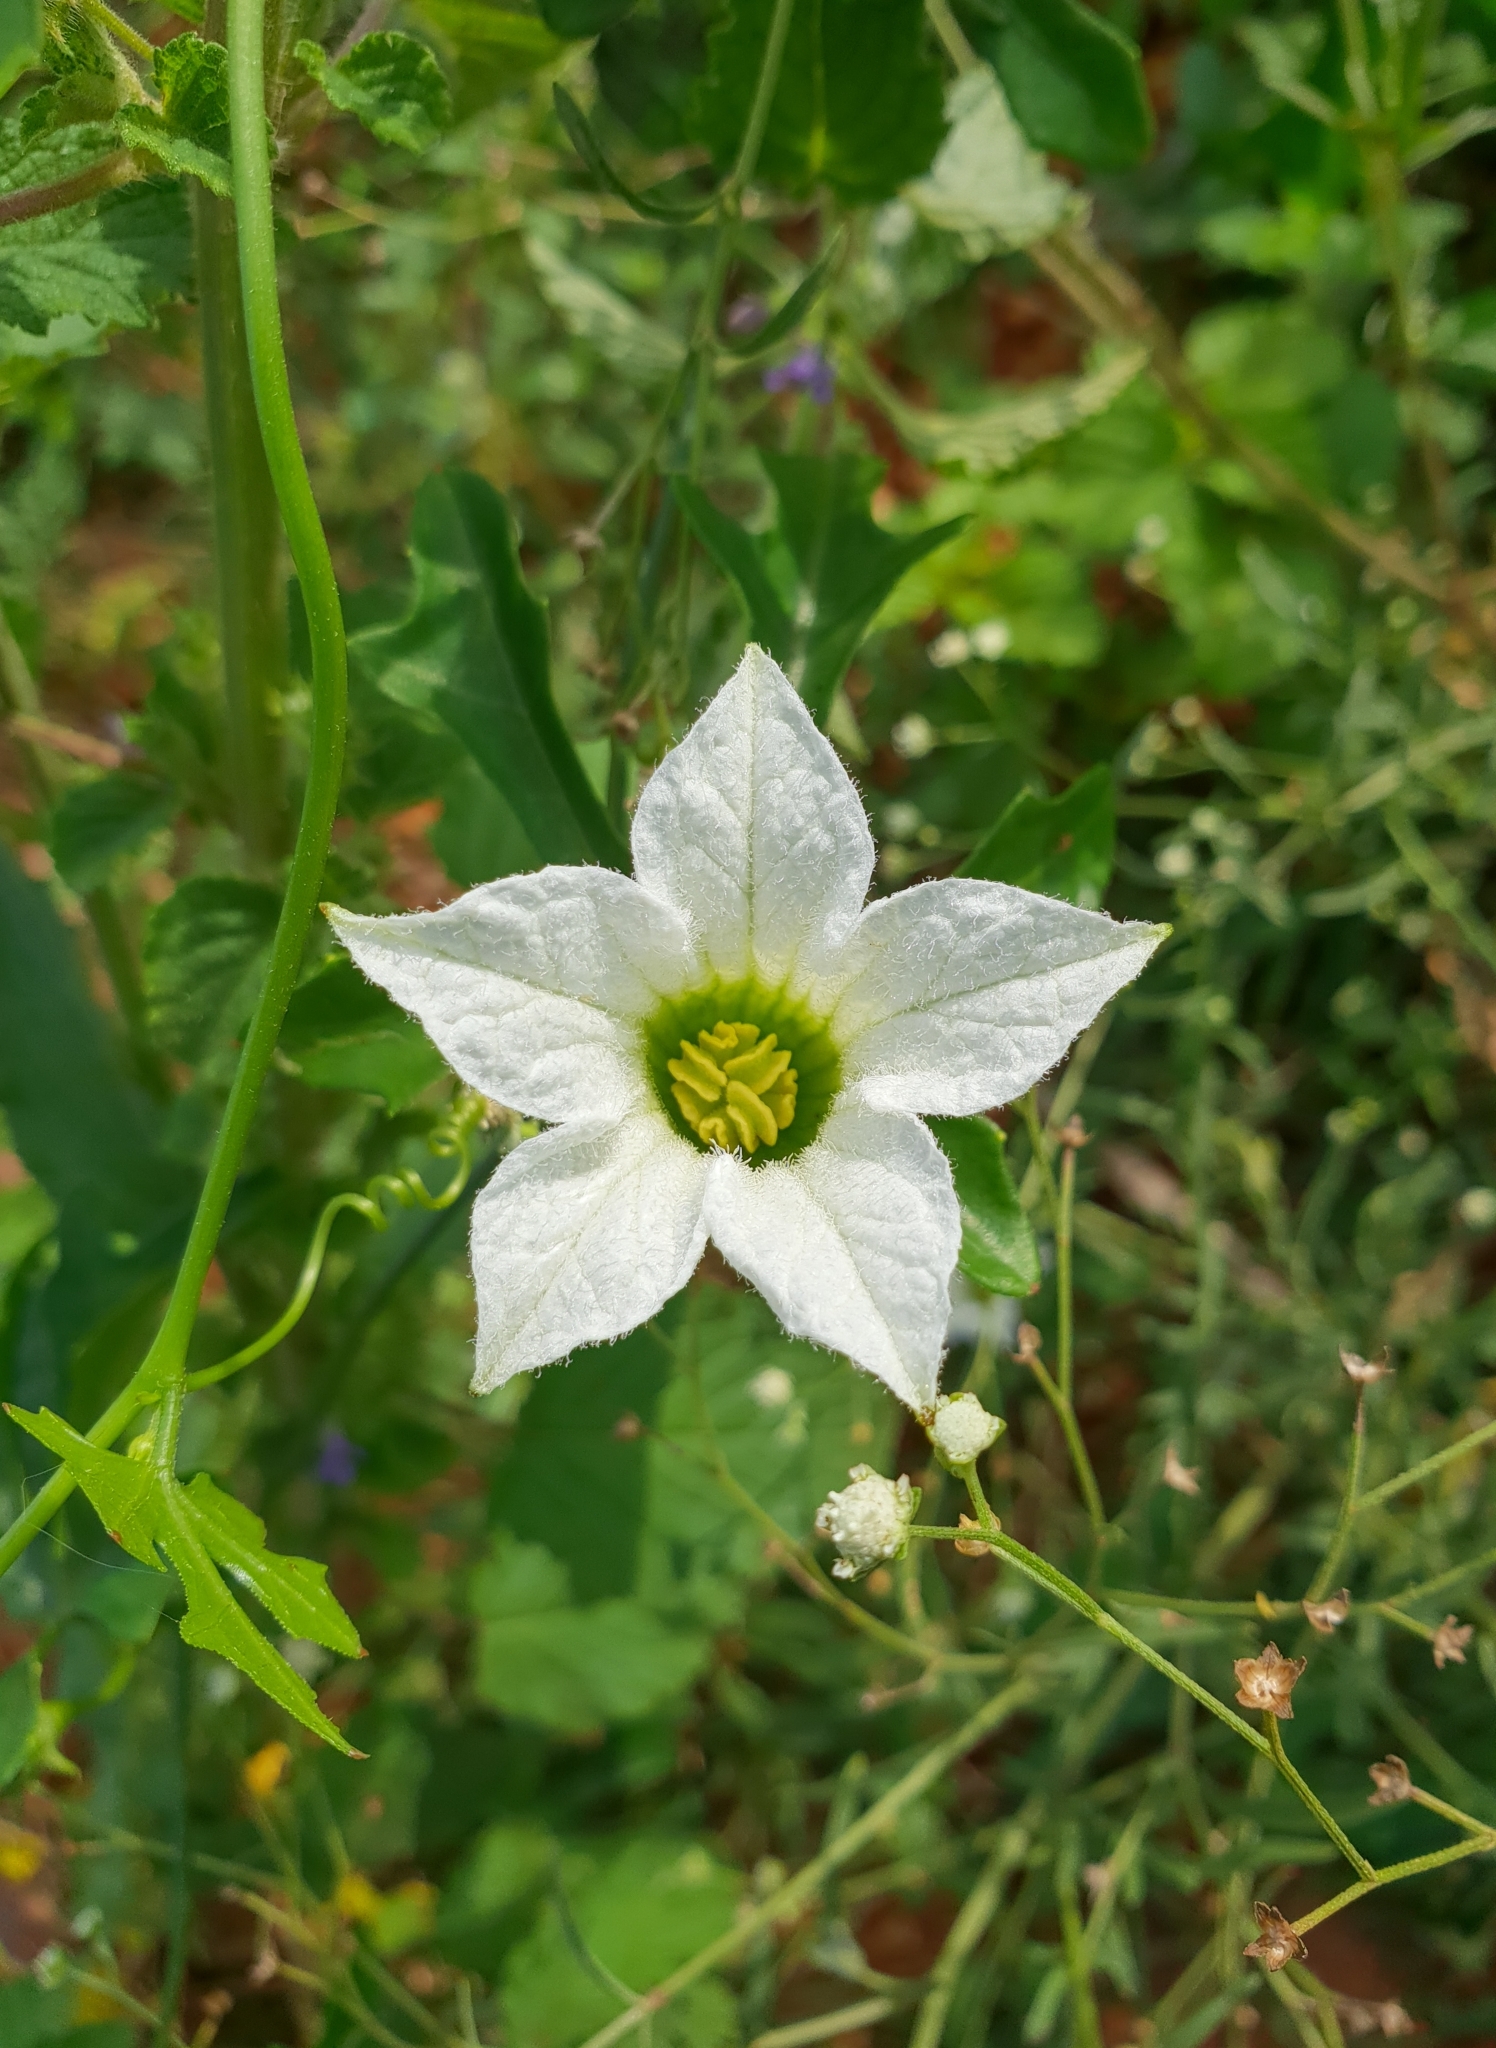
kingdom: Plantae
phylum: Tracheophyta
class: Magnoliopsida
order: Cucurbitales
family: Cucurbitaceae
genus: Coccinia
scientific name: Coccinia grandis
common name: Ivy gourd
